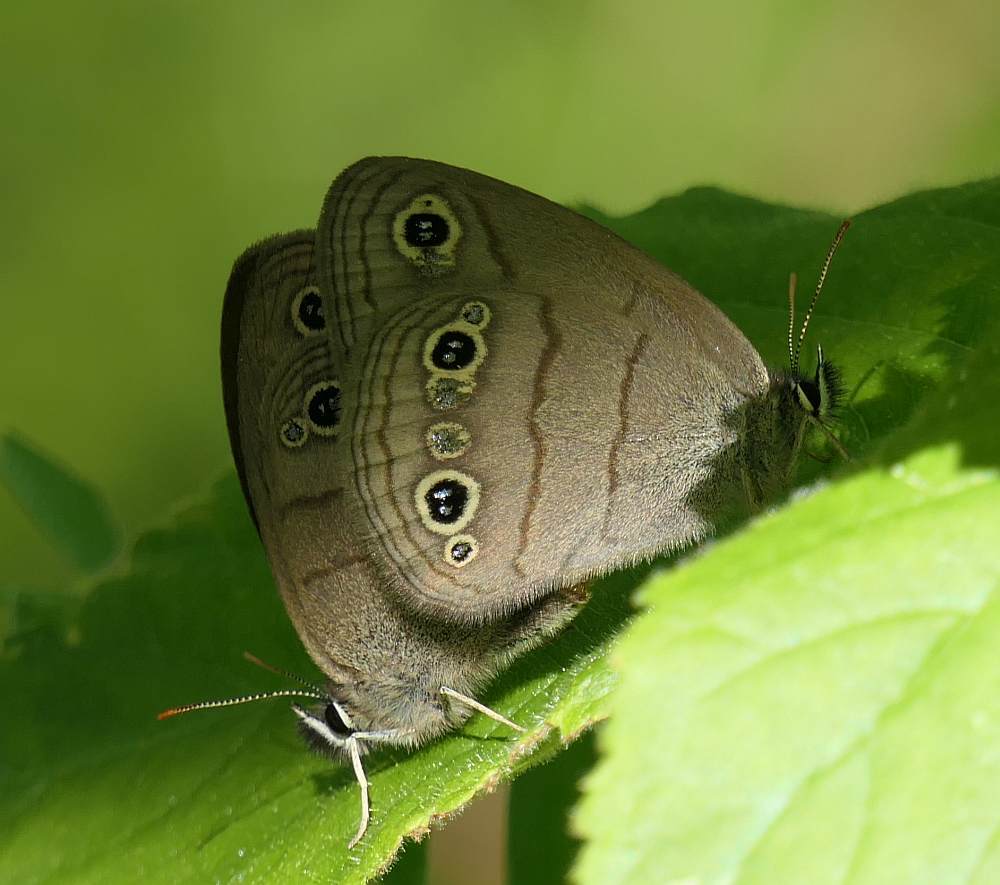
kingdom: Animalia
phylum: Arthropoda
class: Insecta
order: Lepidoptera
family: Nymphalidae
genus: Euptychia
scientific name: Euptychia cymela
